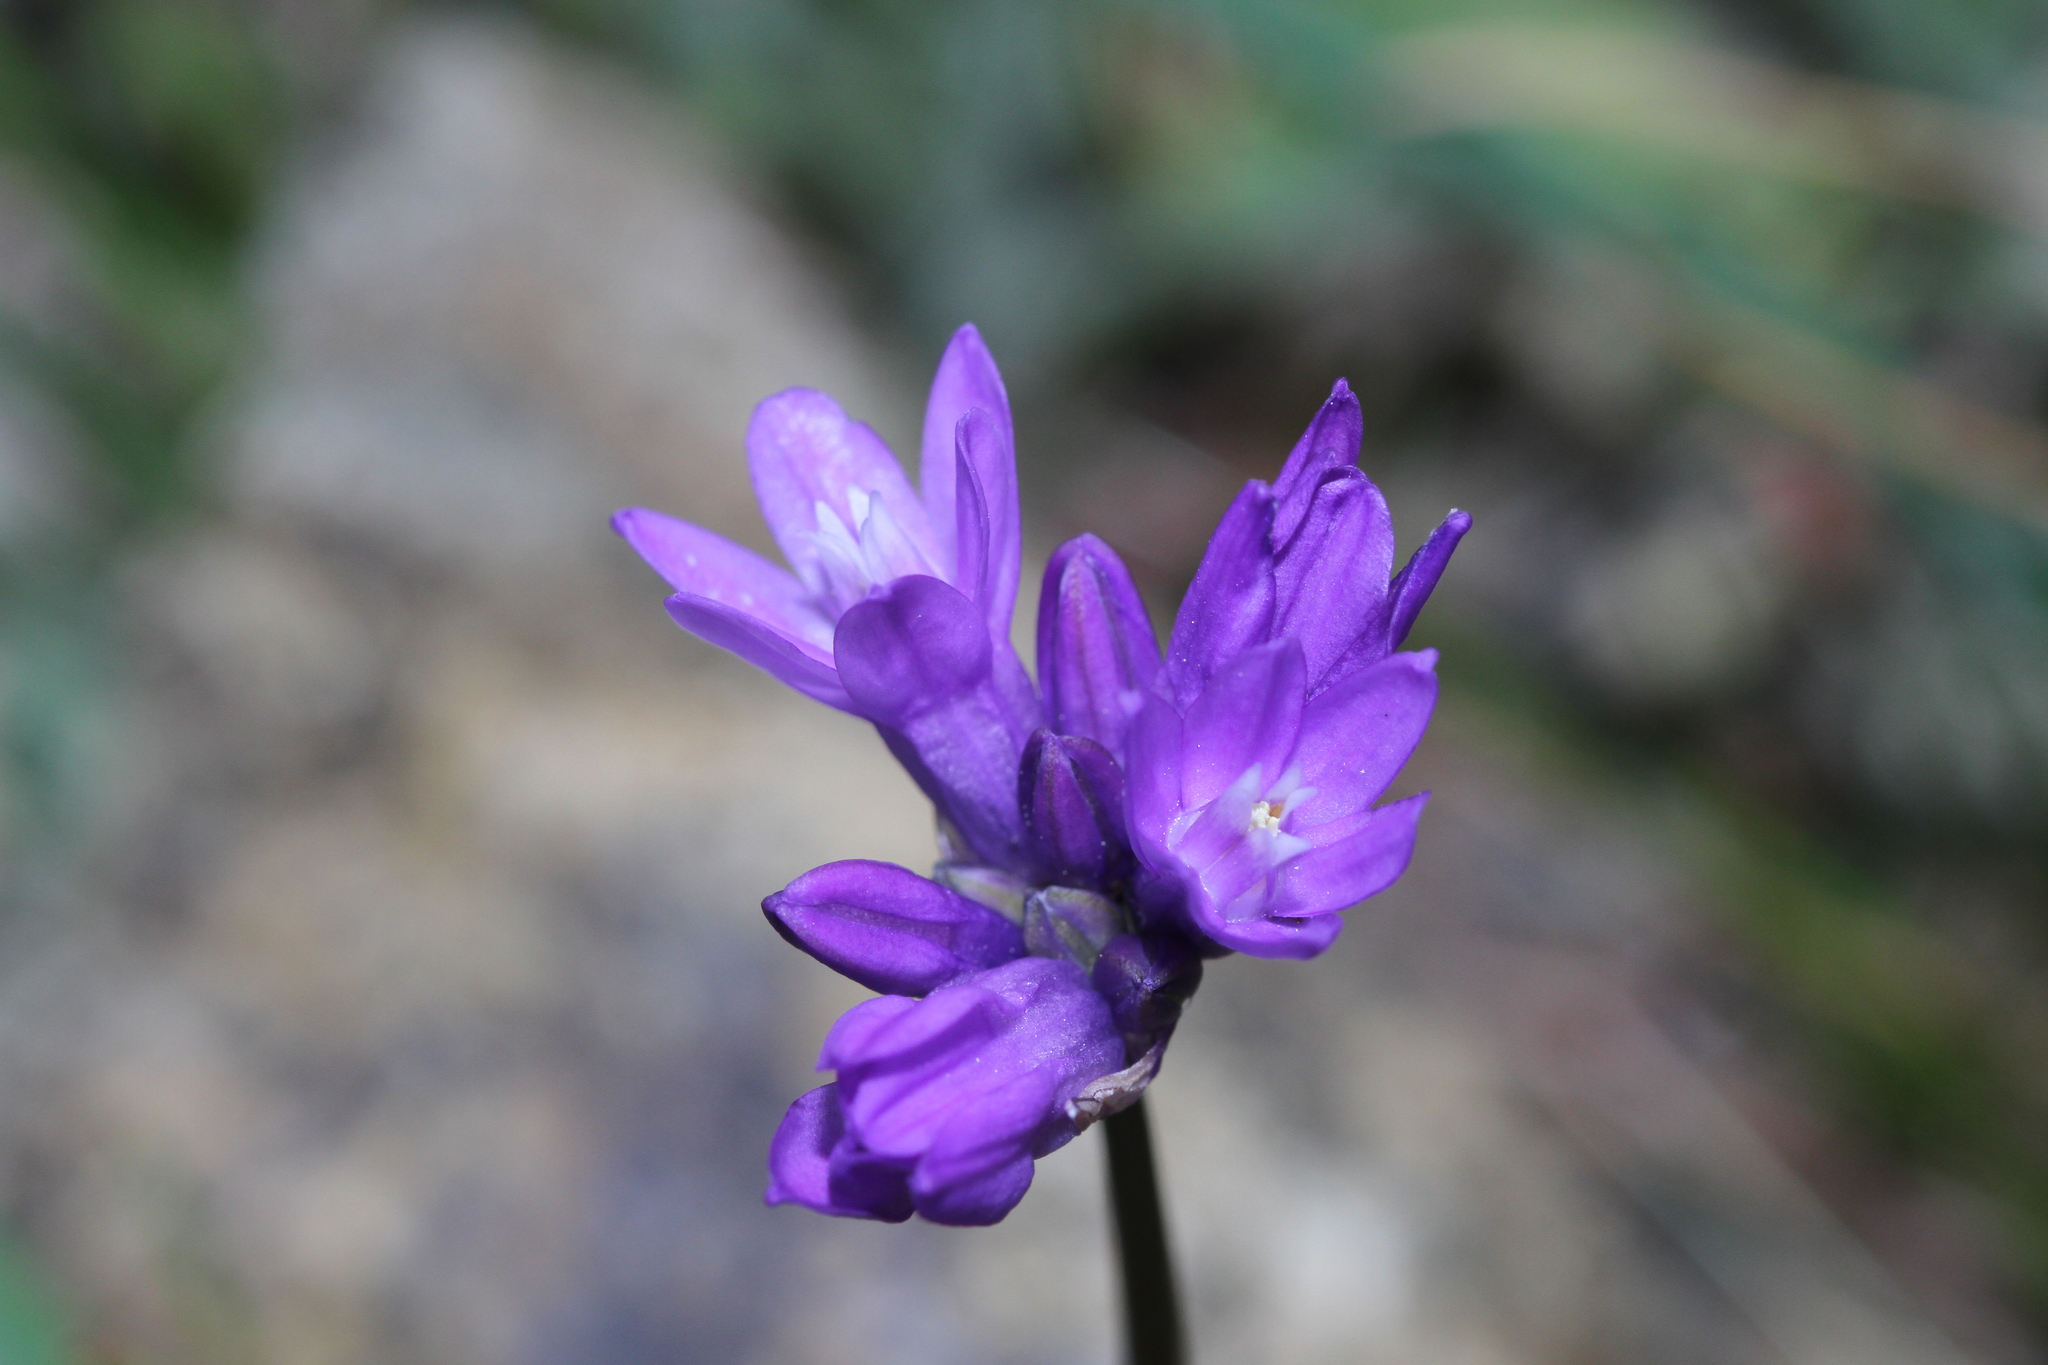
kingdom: Plantae
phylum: Tracheophyta
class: Liliopsida
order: Asparagales
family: Asparagaceae
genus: Dipterostemon
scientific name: Dipterostemon capitatus
